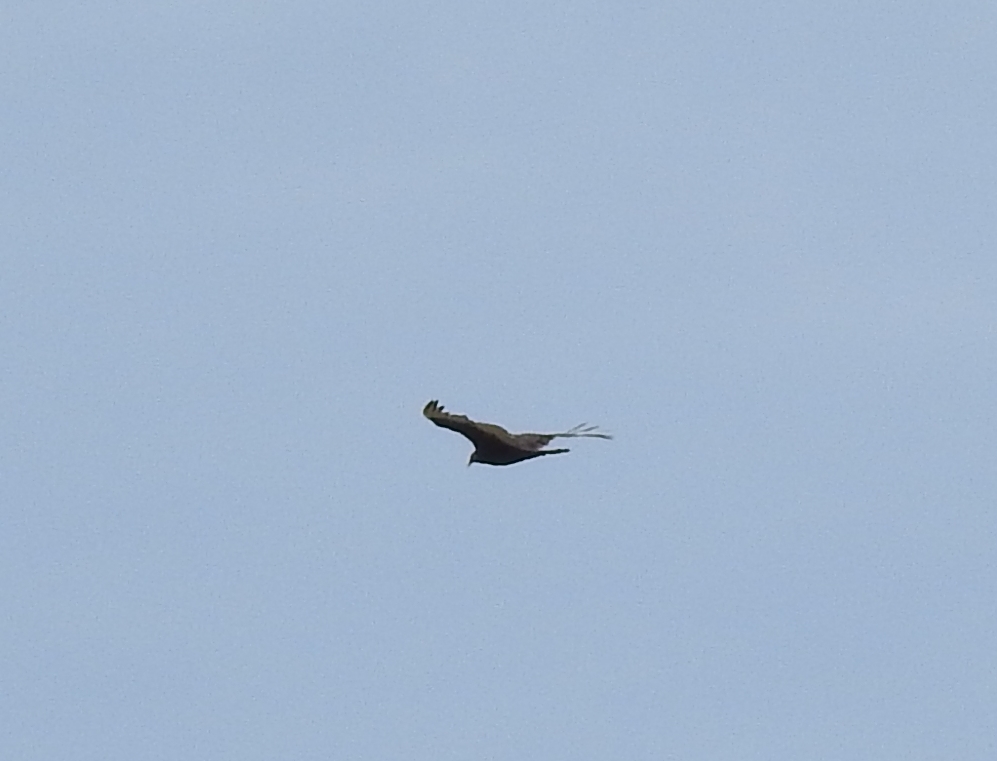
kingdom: Animalia
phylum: Chordata
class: Aves
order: Accipitriformes
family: Cathartidae
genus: Cathartes
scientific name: Cathartes aura
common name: Turkey vulture
